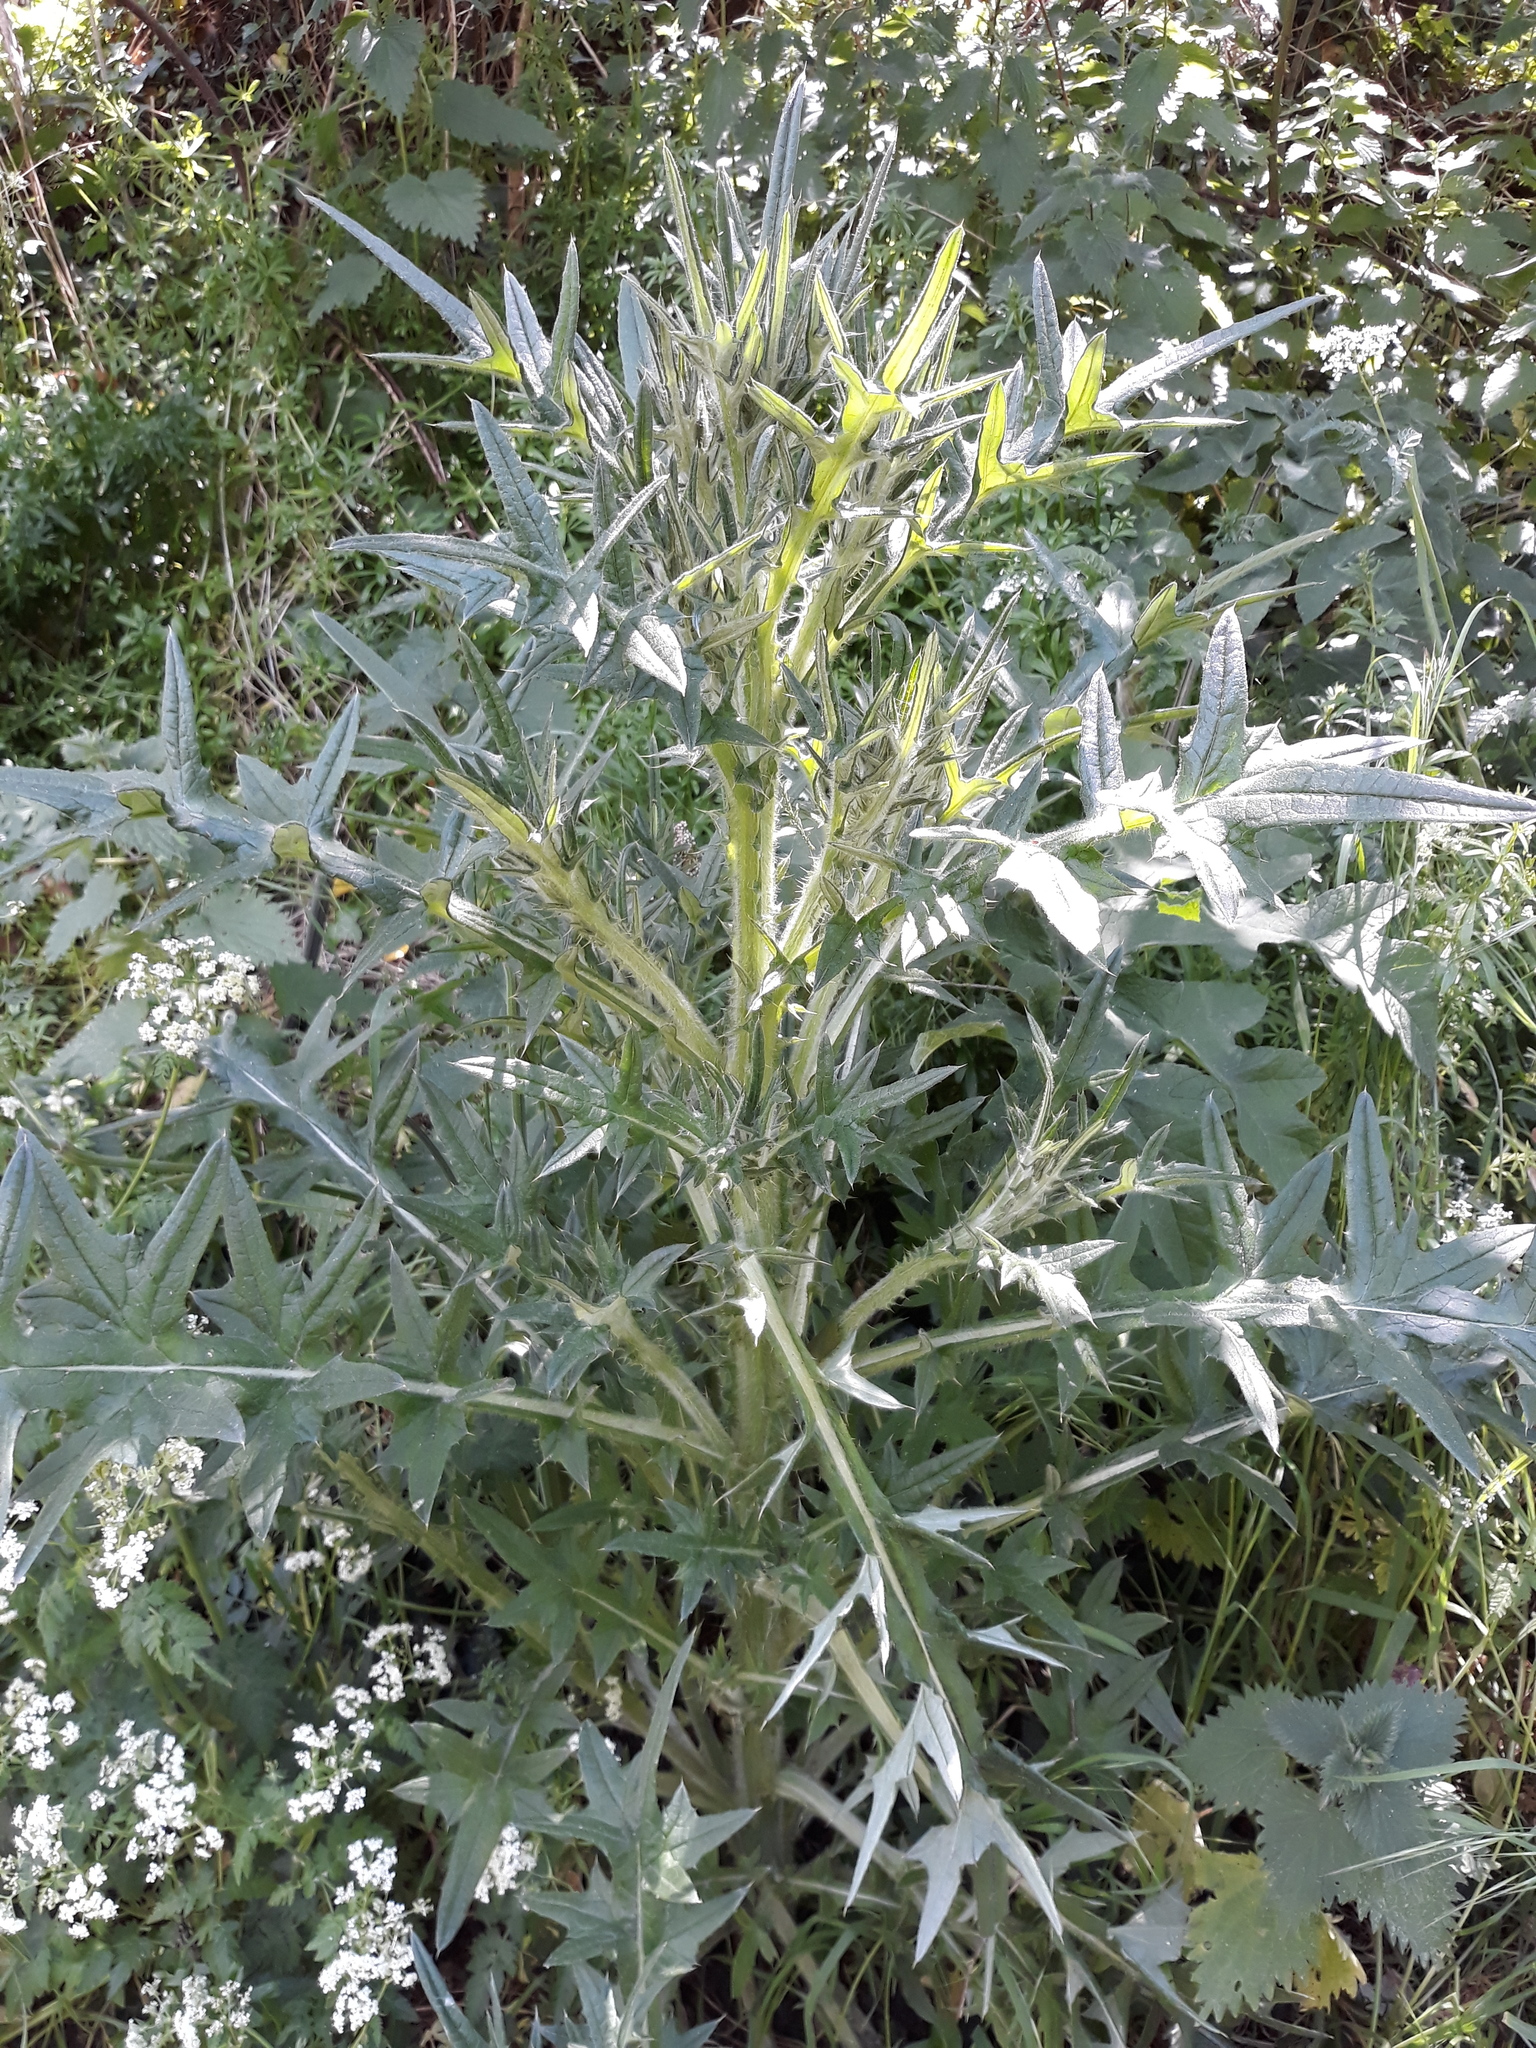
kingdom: Plantae
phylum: Tracheophyta
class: Magnoliopsida
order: Asterales
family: Asteraceae
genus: Cirsium
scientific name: Cirsium vulgare
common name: Bull thistle
